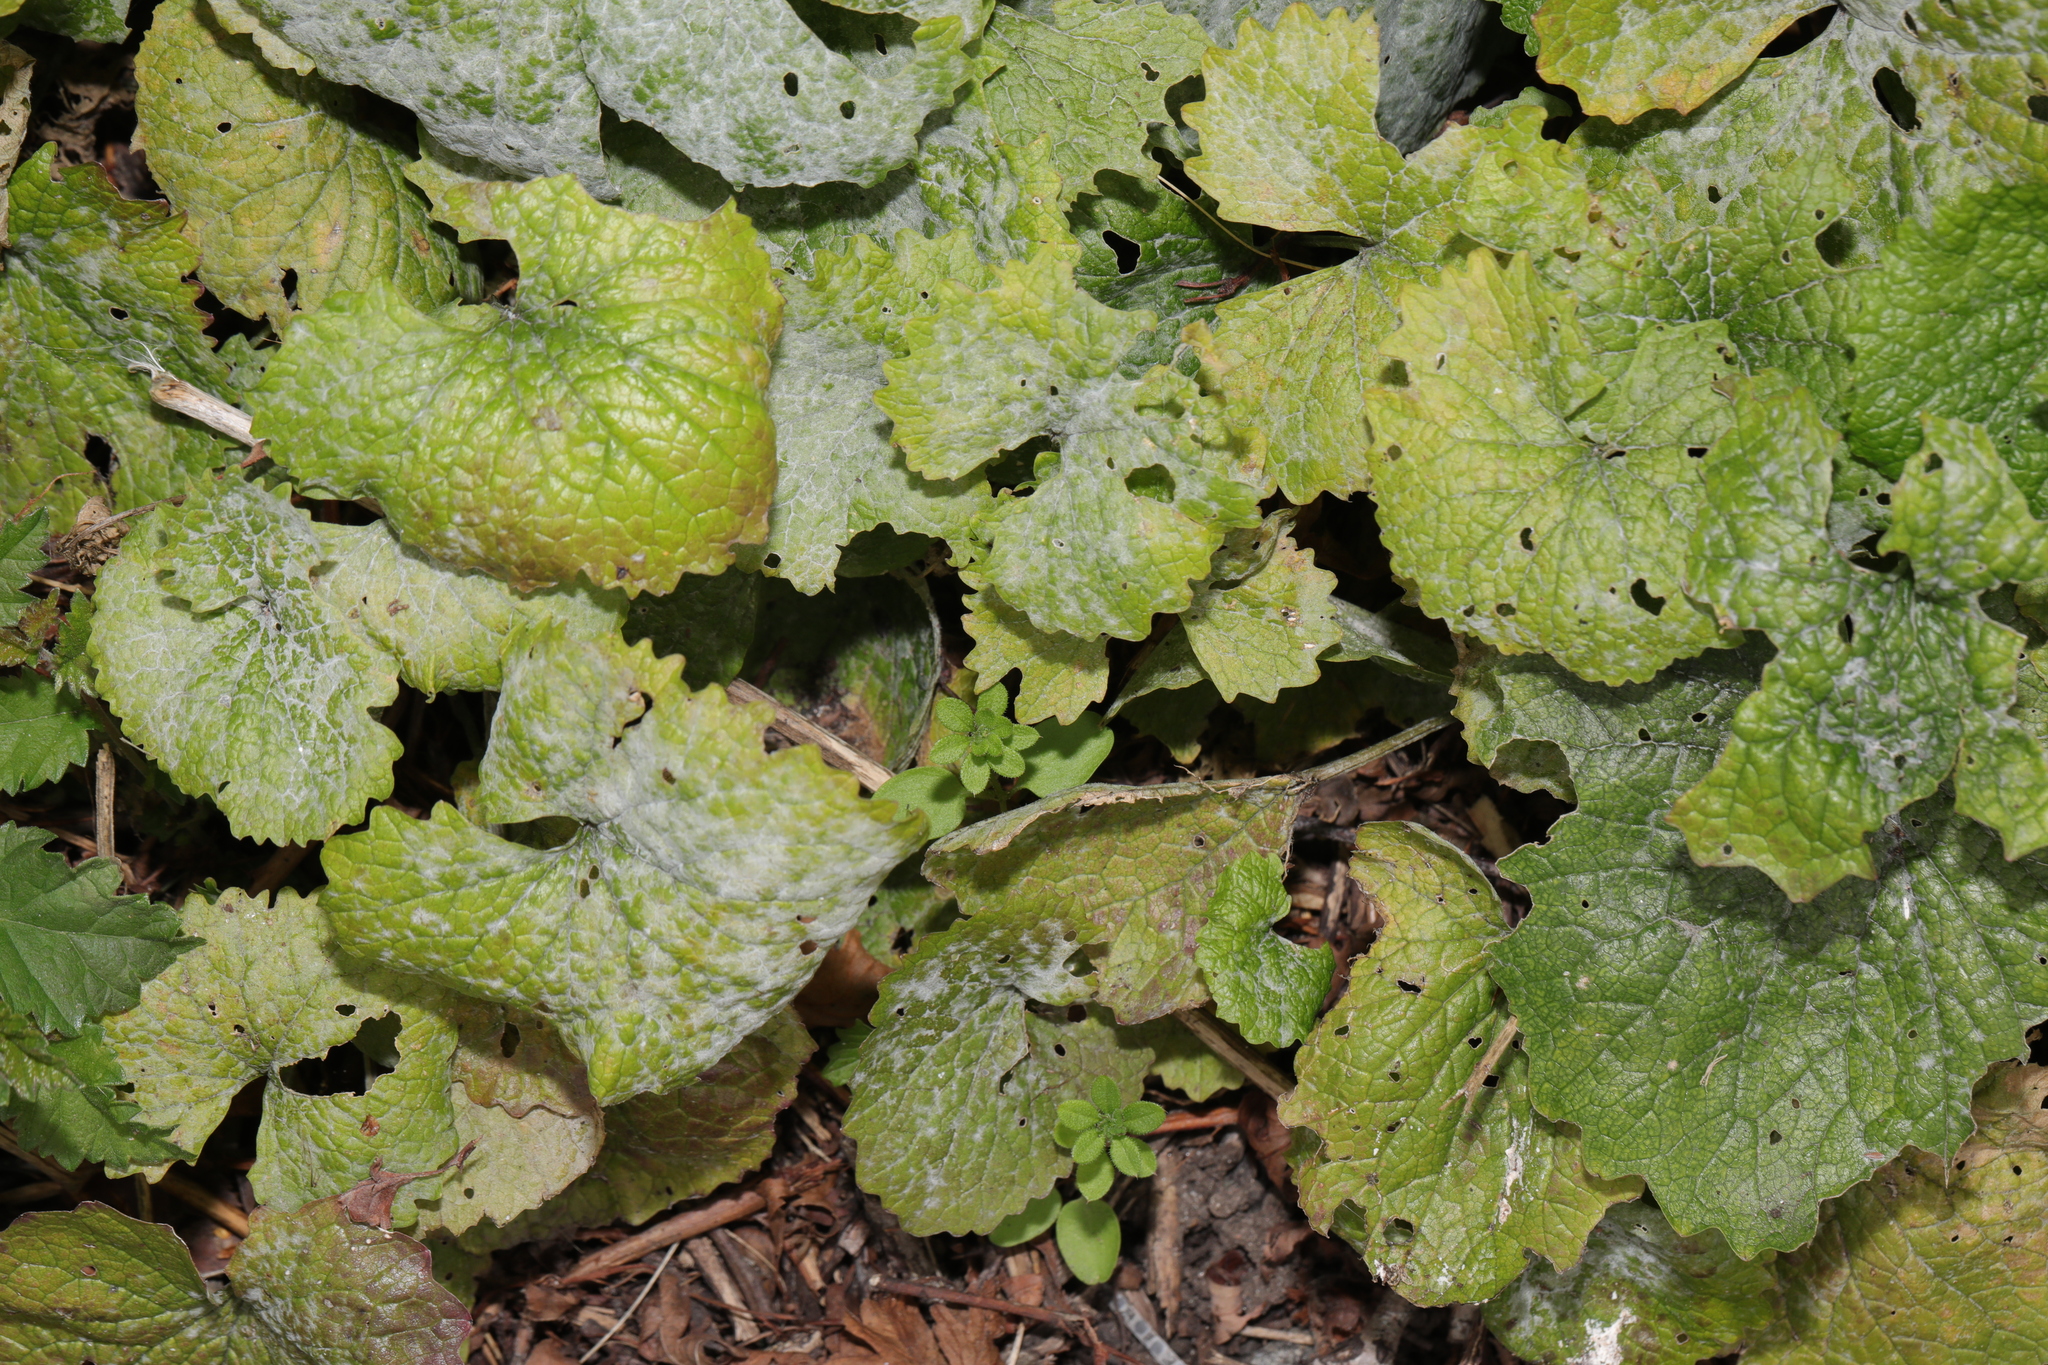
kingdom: Plantae
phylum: Tracheophyta
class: Magnoliopsida
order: Brassicales
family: Brassicaceae
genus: Alliaria
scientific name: Alliaria petiolata
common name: Garlic mustard
